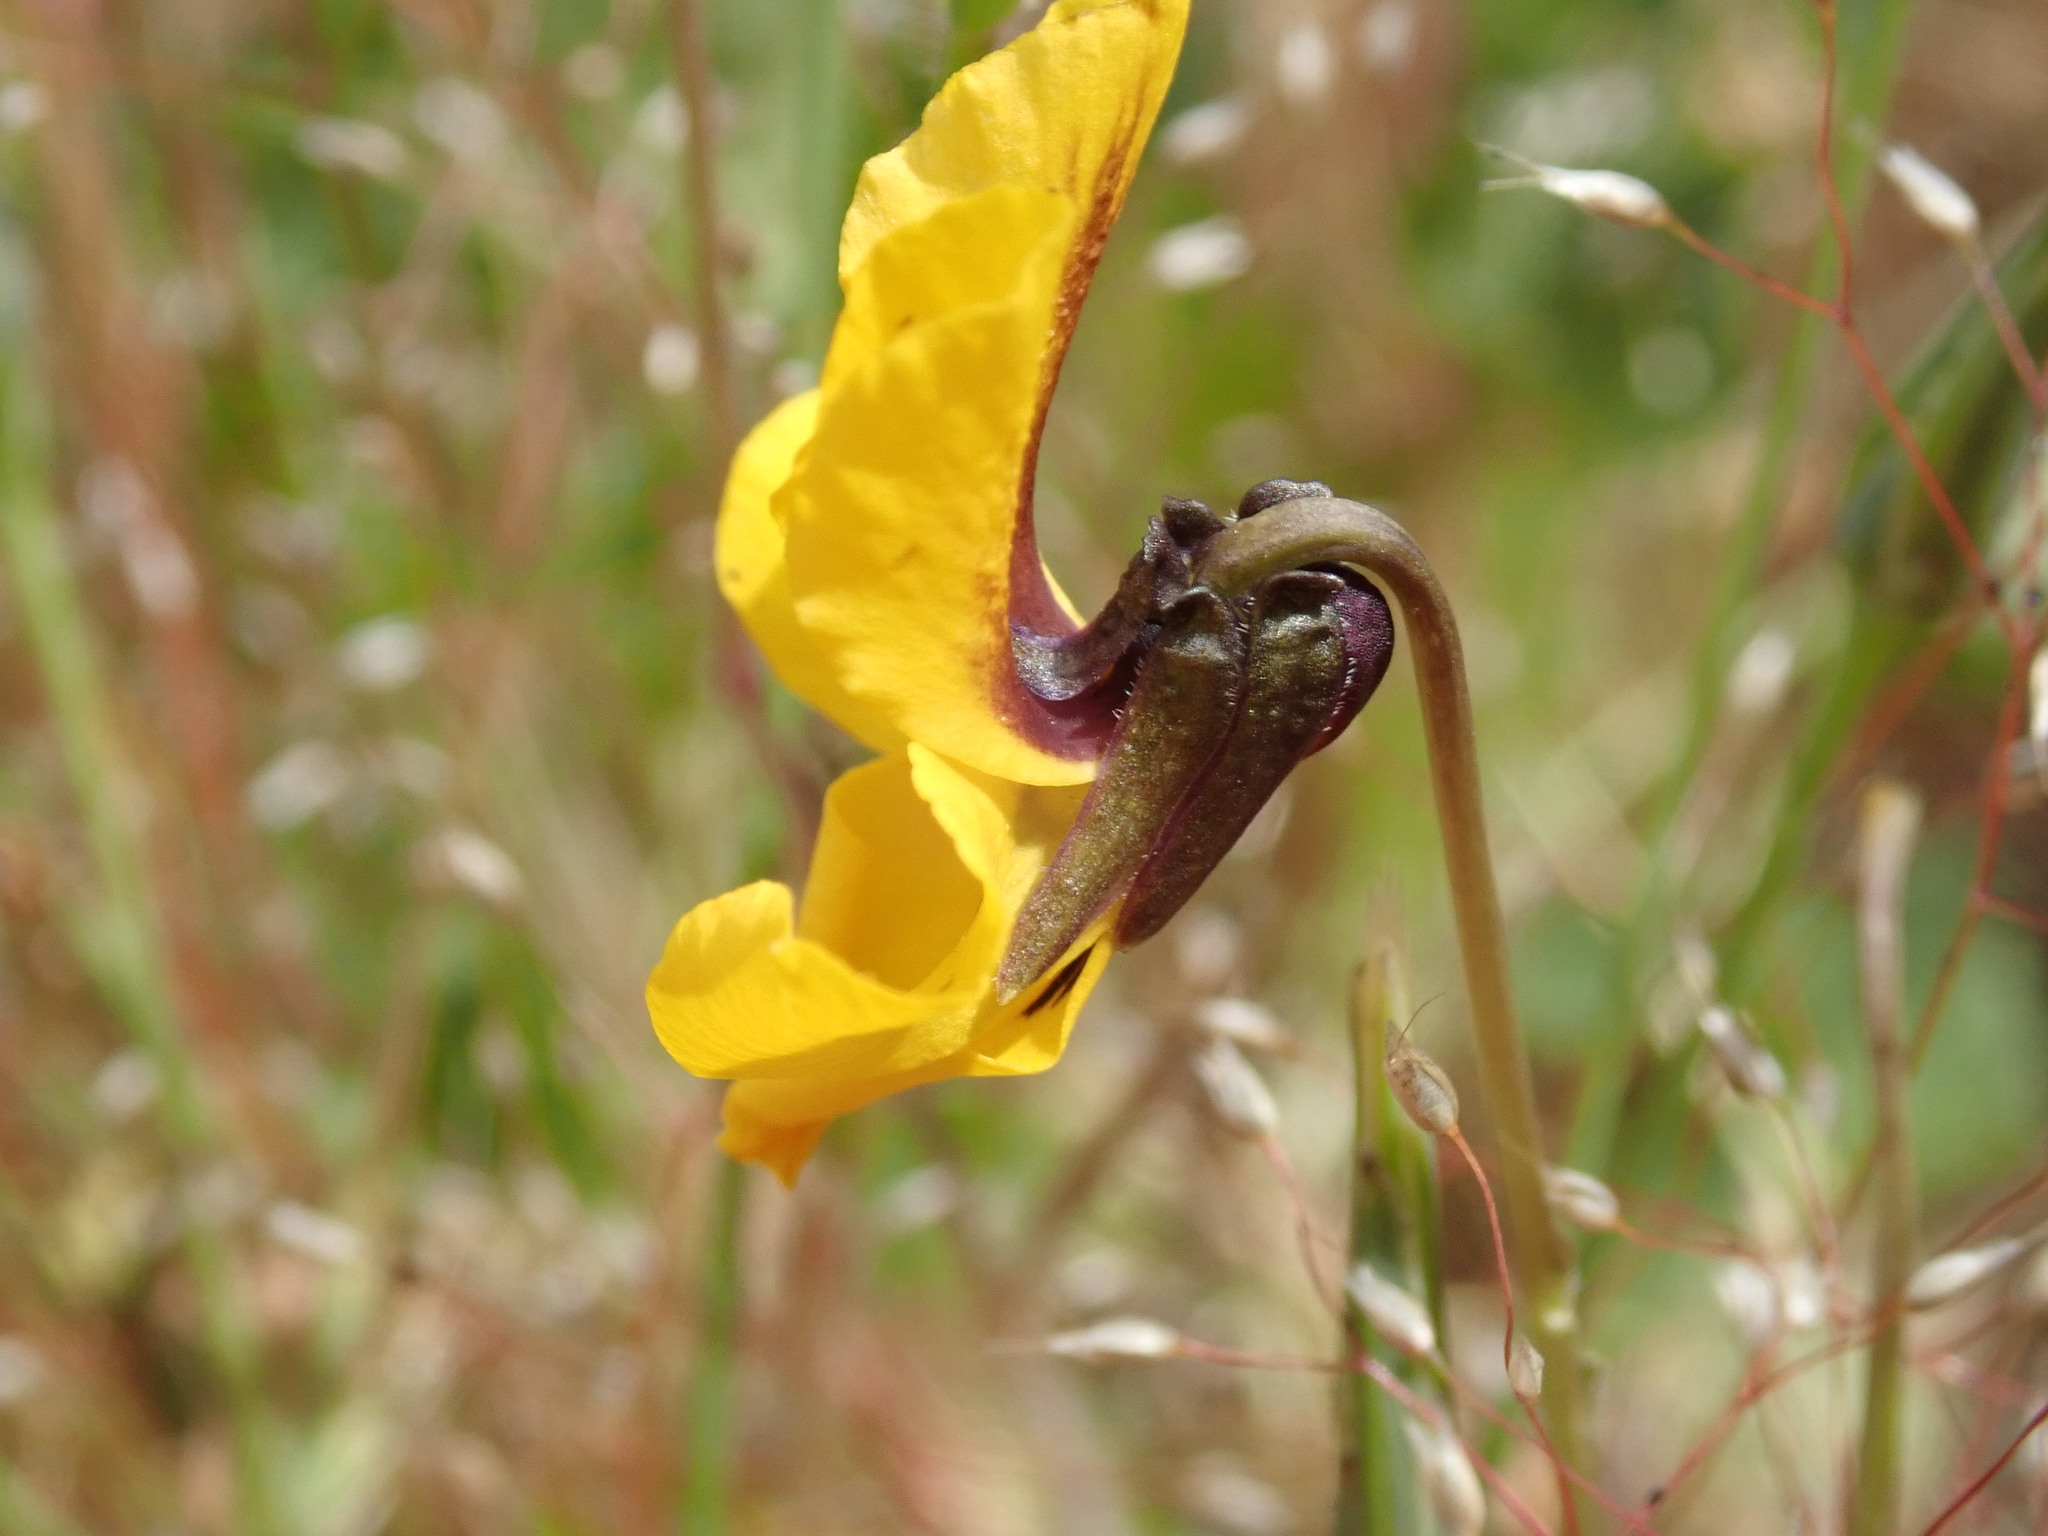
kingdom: Plantae
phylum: Tracheophyta
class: Magnoliopsida
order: Malpighiales
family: Violaceae
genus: Viola
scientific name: Viola pedunculata
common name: California golden violet
